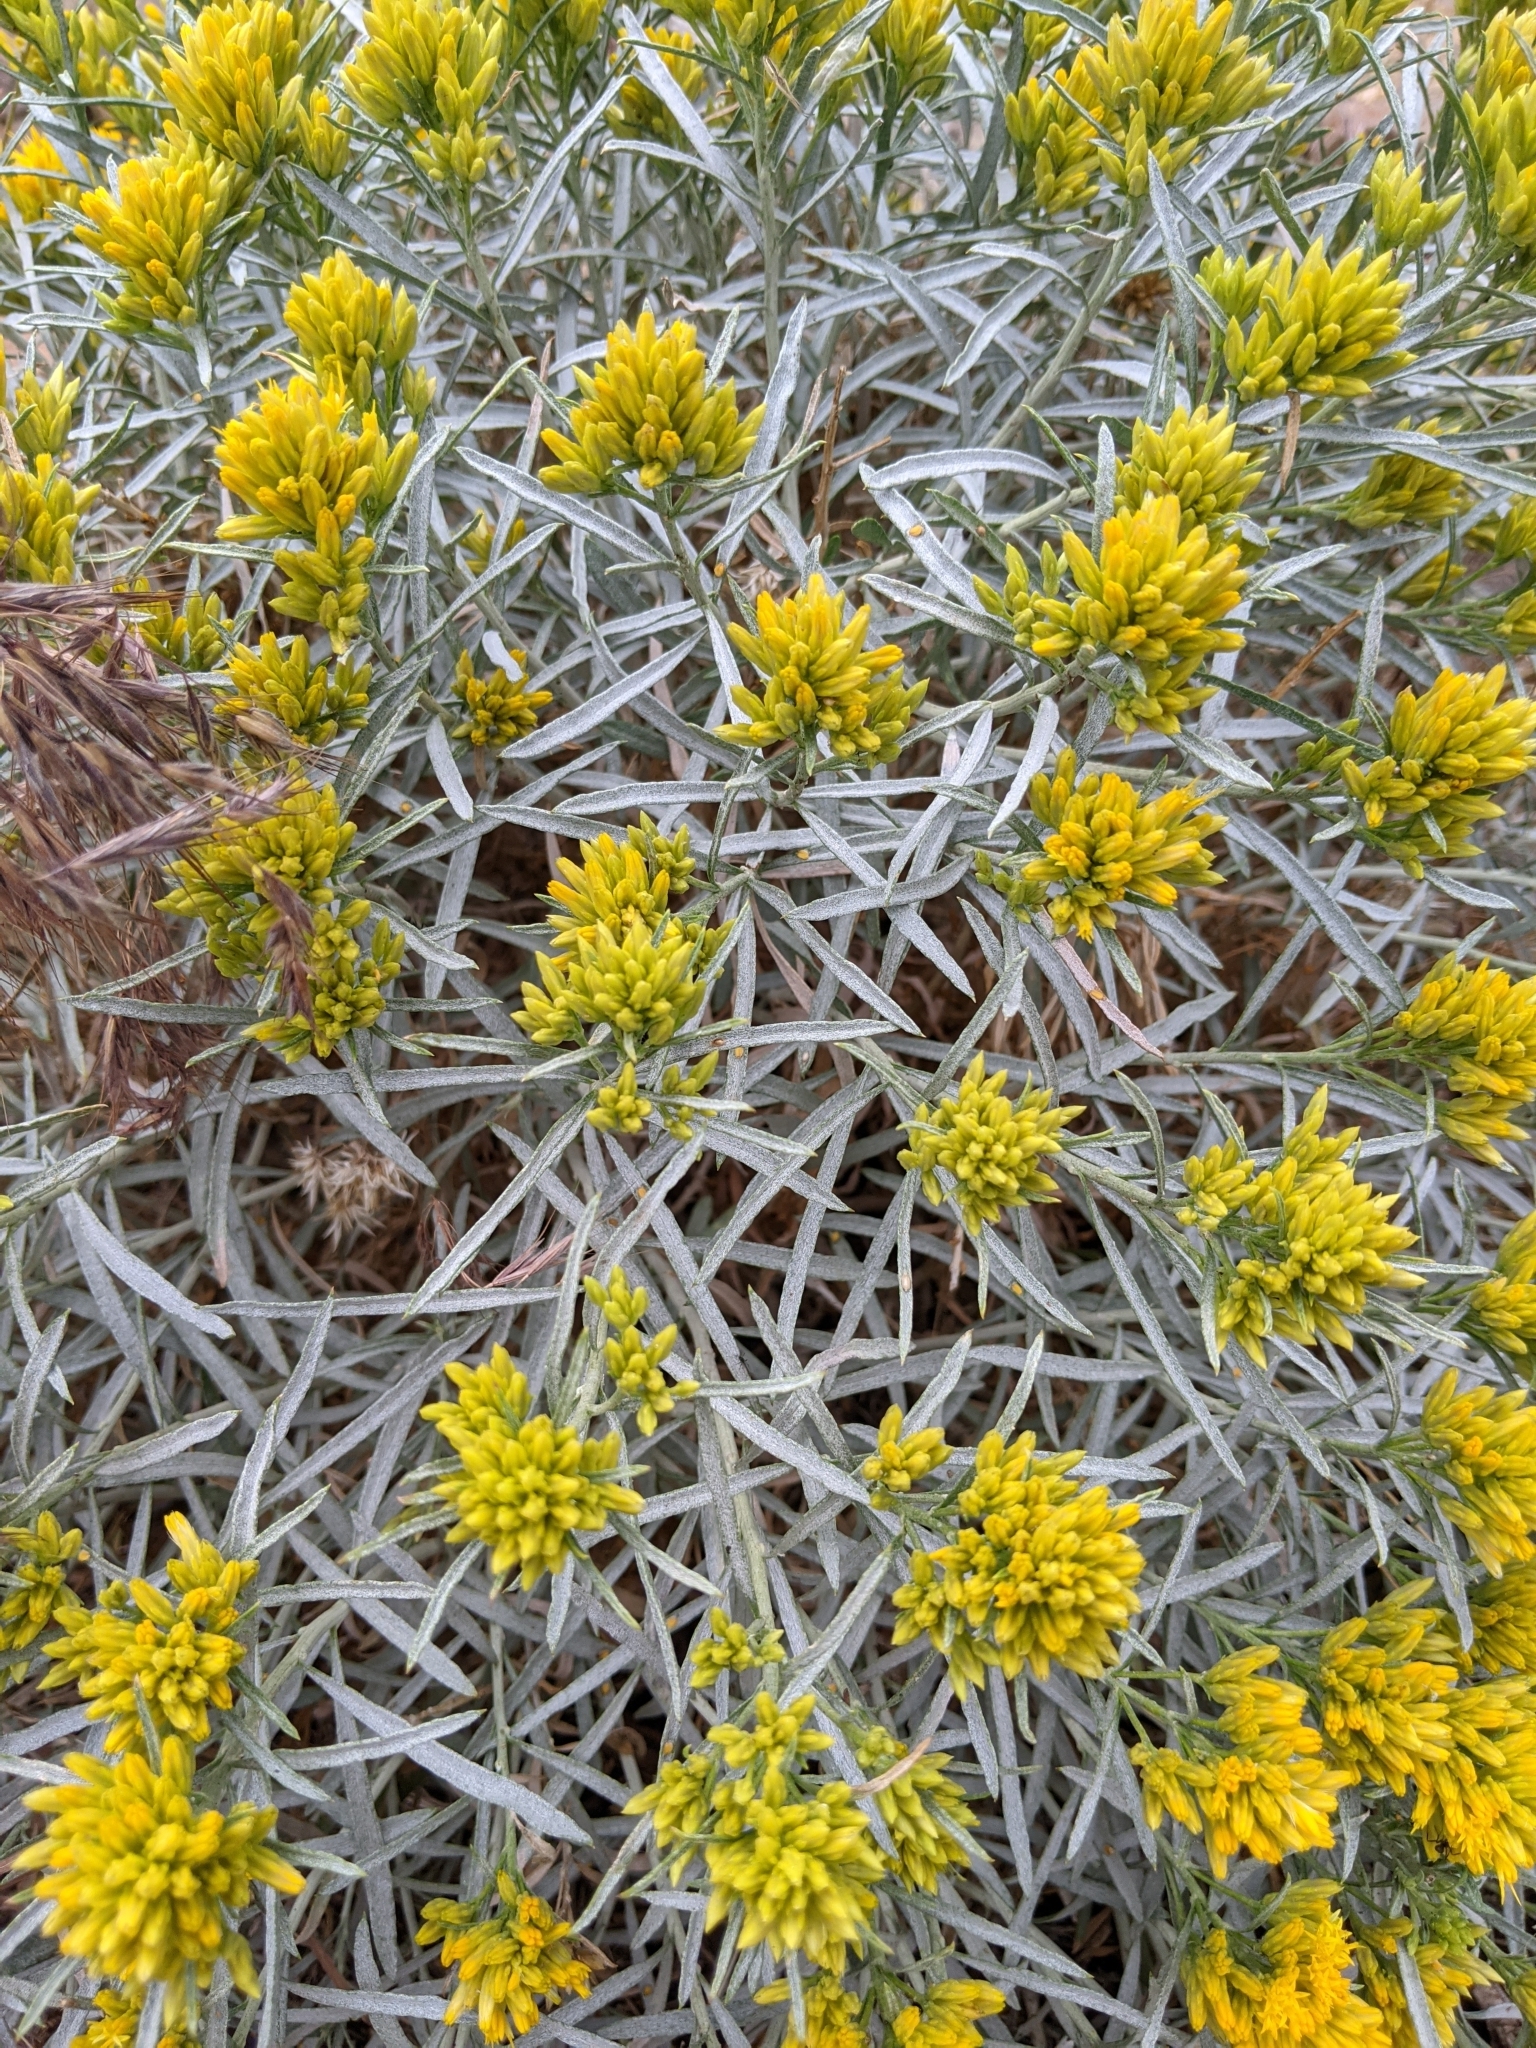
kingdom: Plantae
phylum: Tracheophyta
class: Magnoliopsida
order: Asterales
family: Asteraceae
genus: Ericameria
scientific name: Ericameria nauseosa
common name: Rubber rabbitbrush
